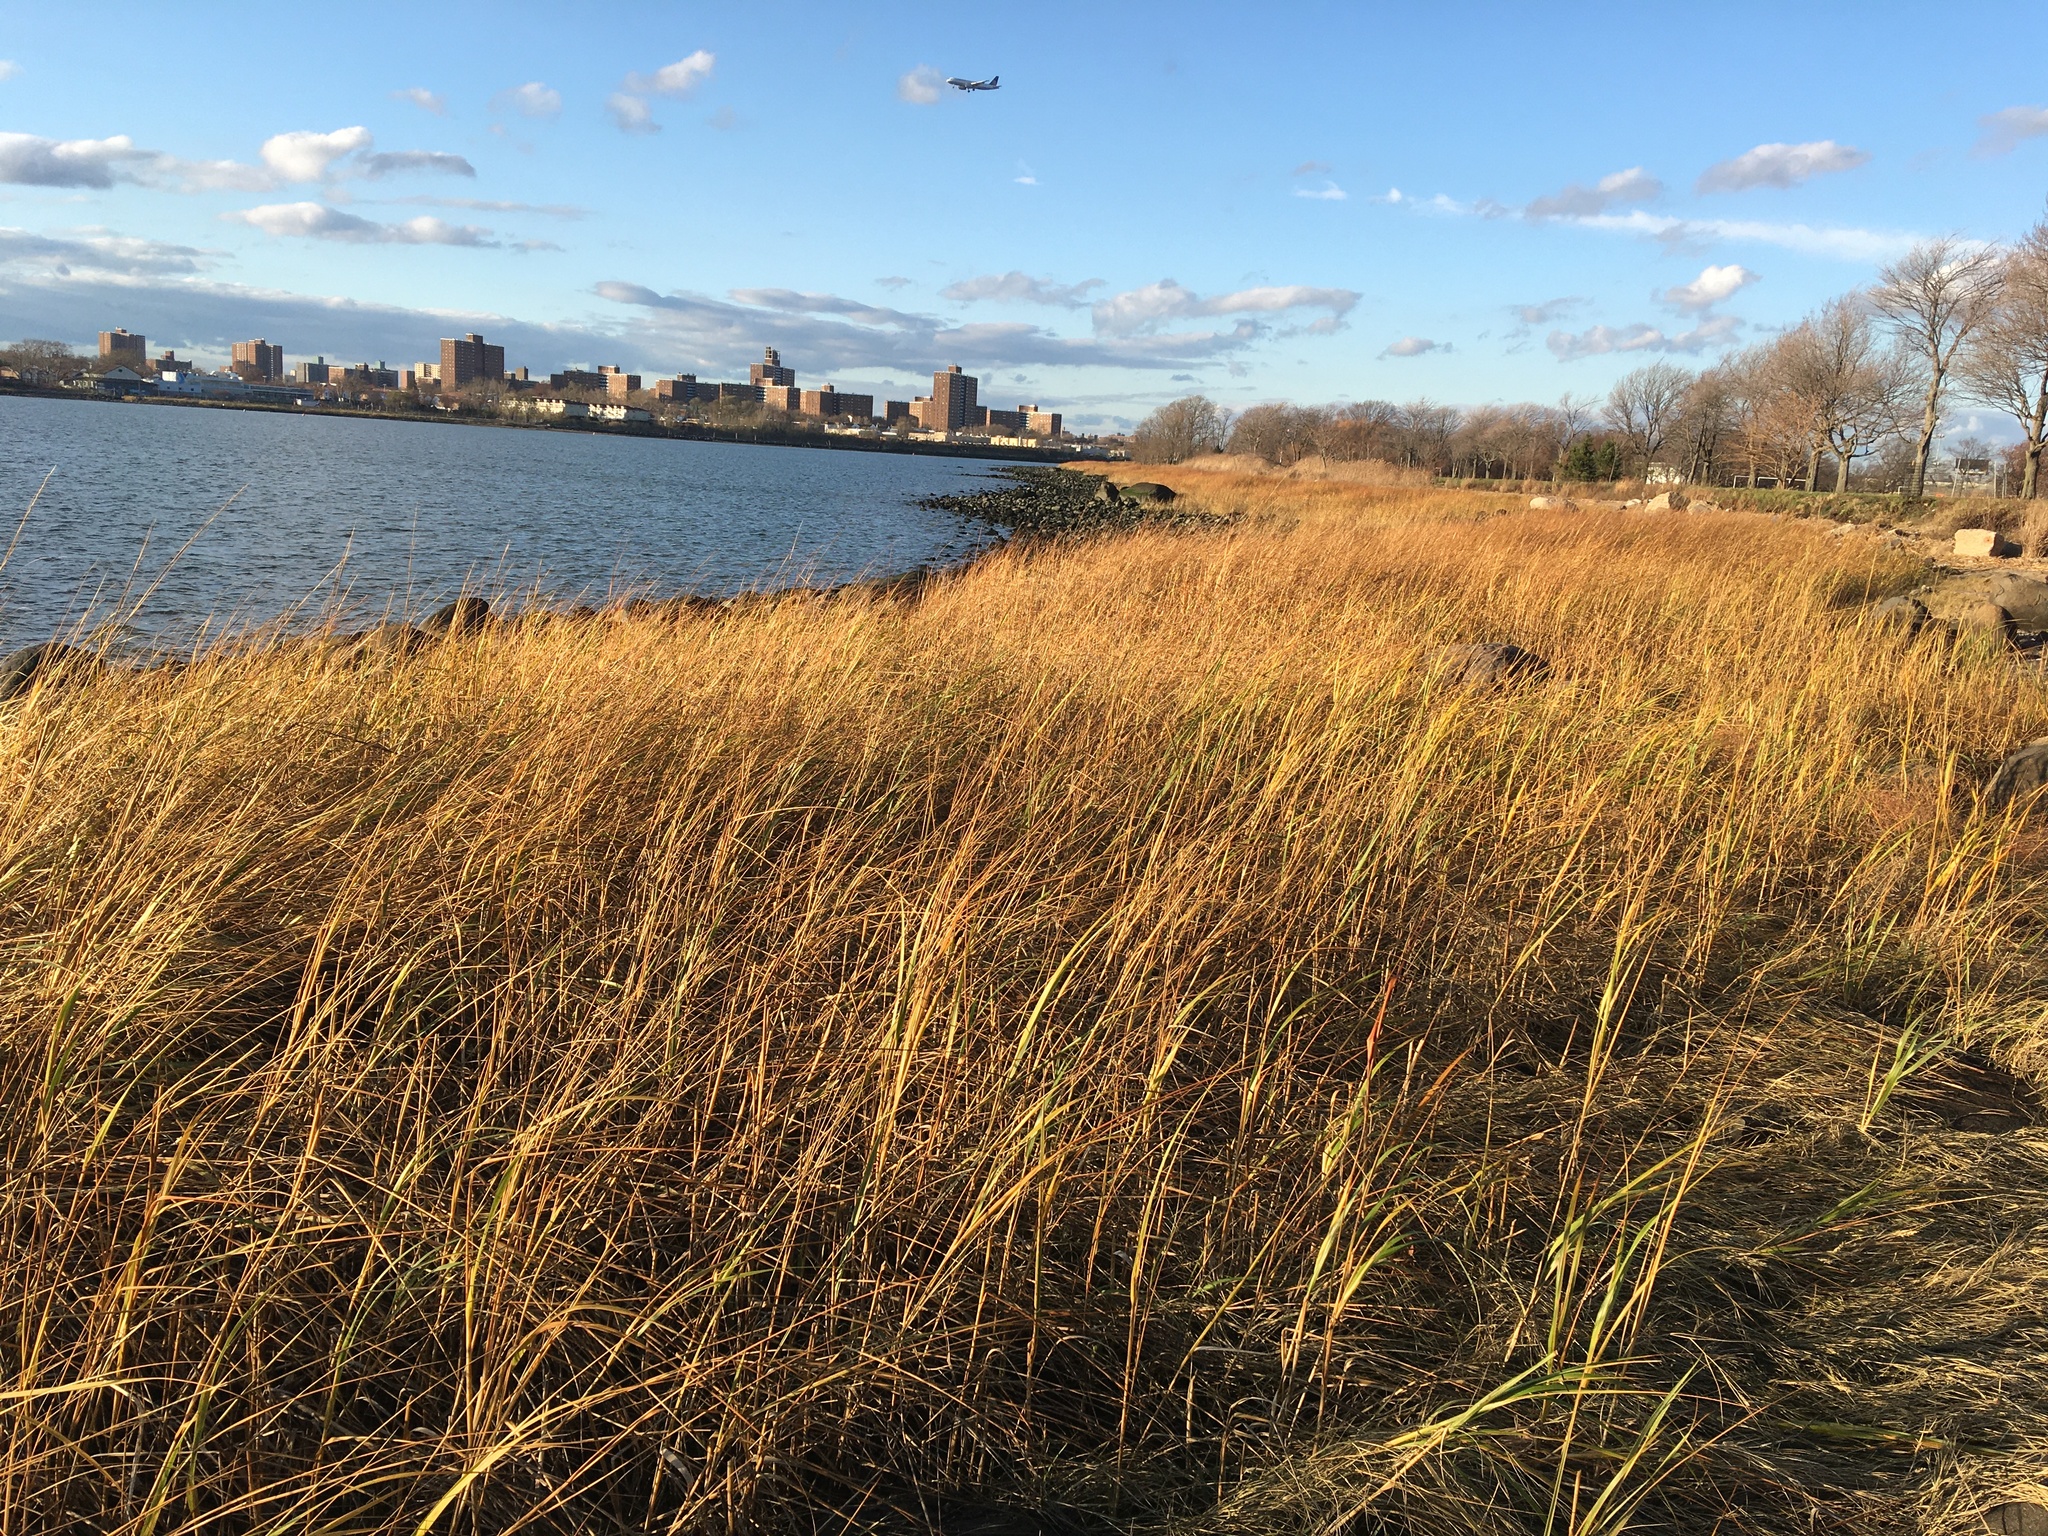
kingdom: Plantae
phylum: Tracheophyta
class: Liliopsida
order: Poales
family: Poaceae
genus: Sporobolus
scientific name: Sporobolus alterniflorus
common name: Atlantic cordgrass
